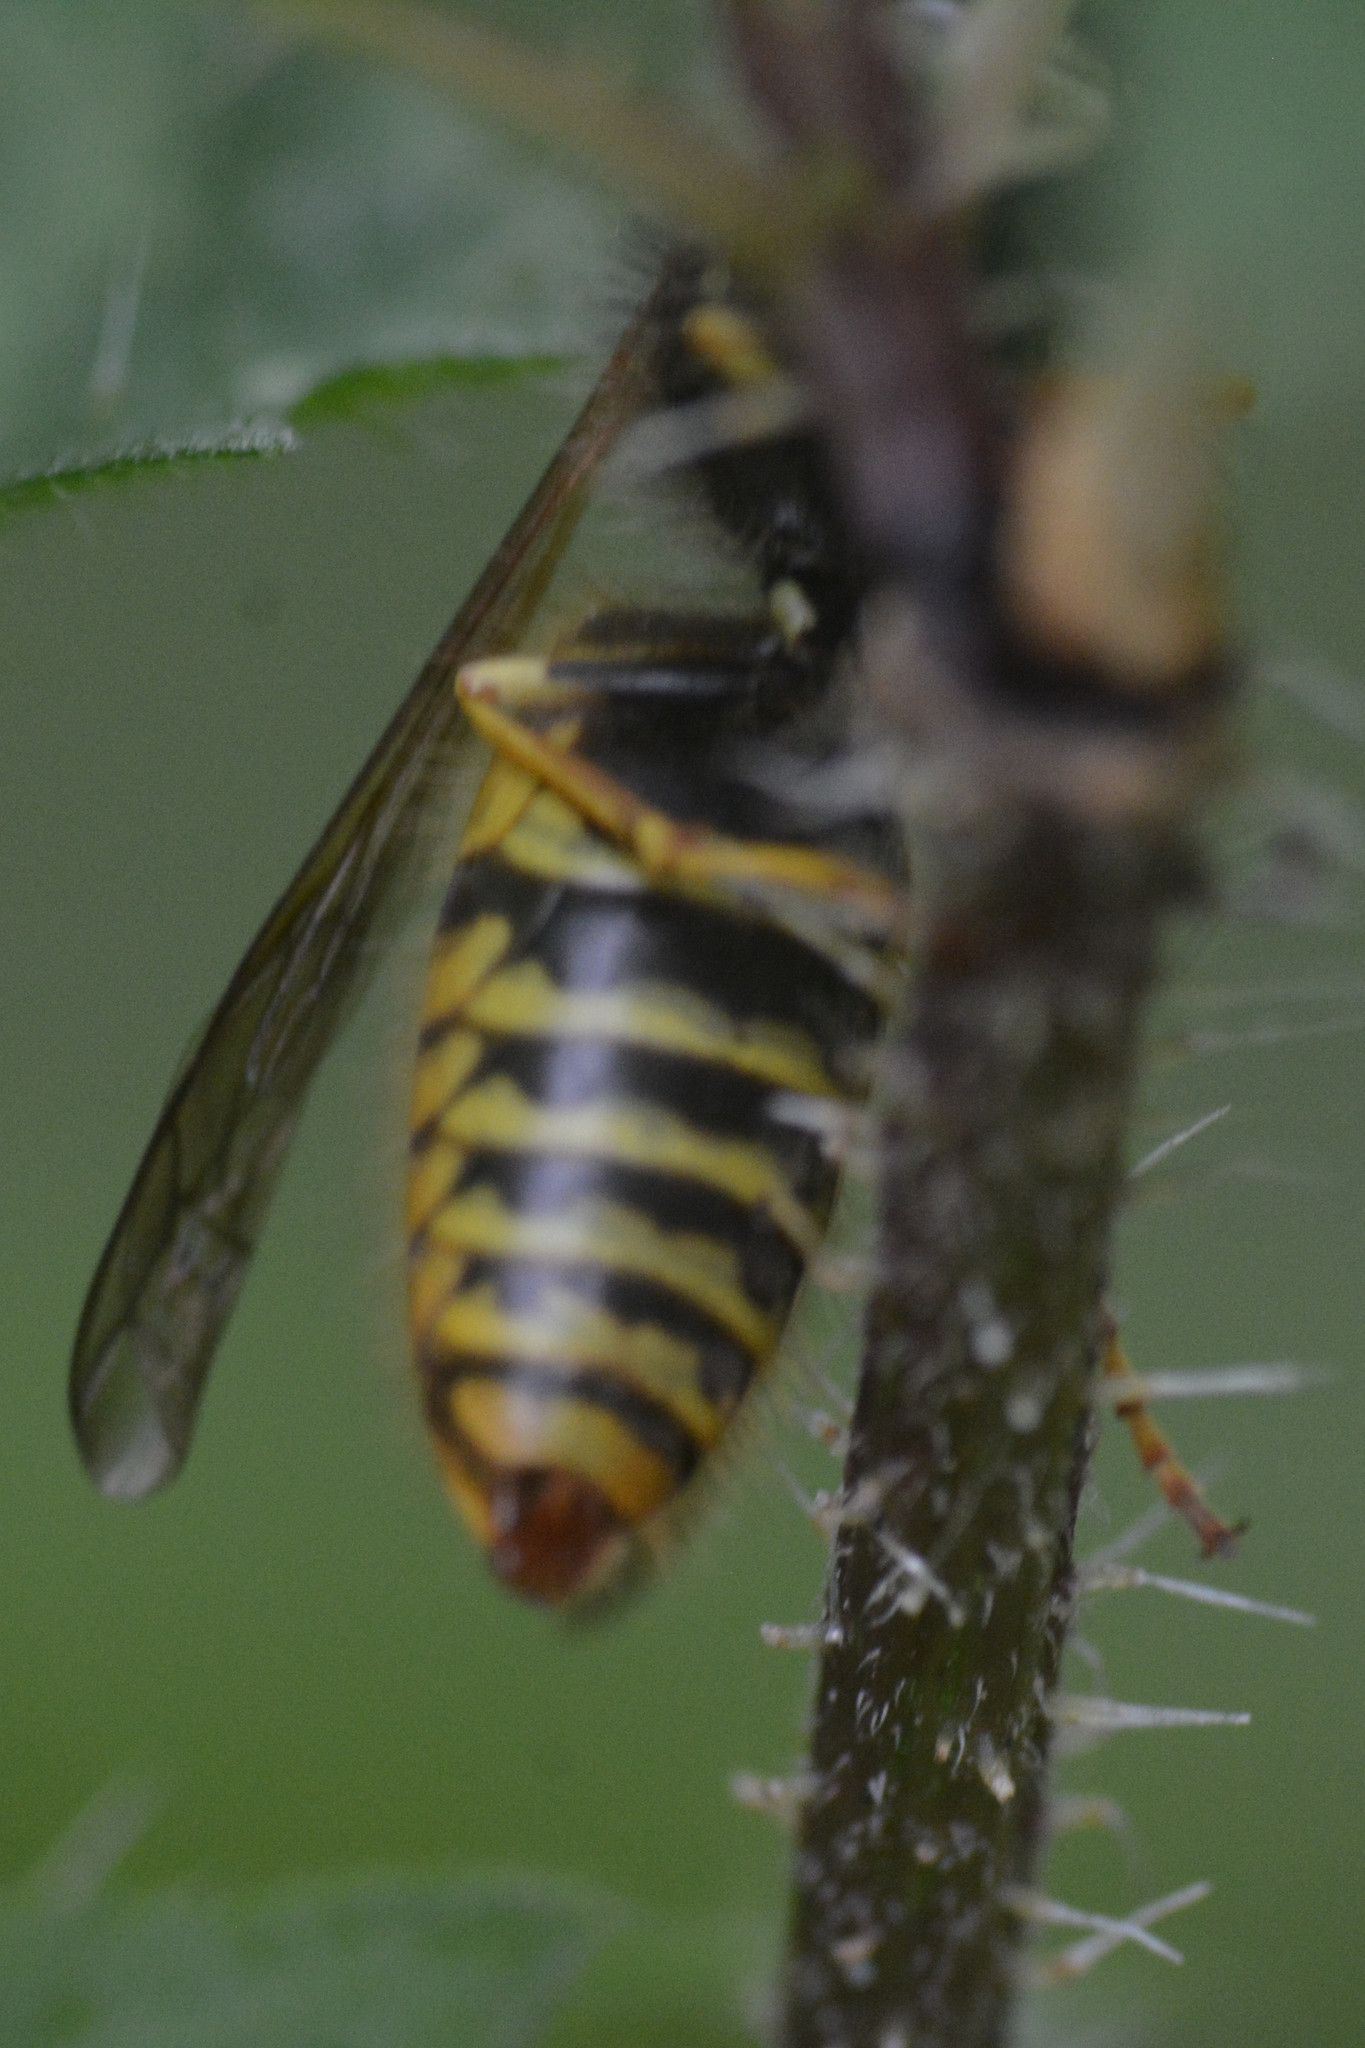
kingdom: Animalia
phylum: Arthropoda
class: Insecta
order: Hymenoptera
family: Vespidae
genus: Vespula
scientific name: Vespula germanica
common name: German wasp
